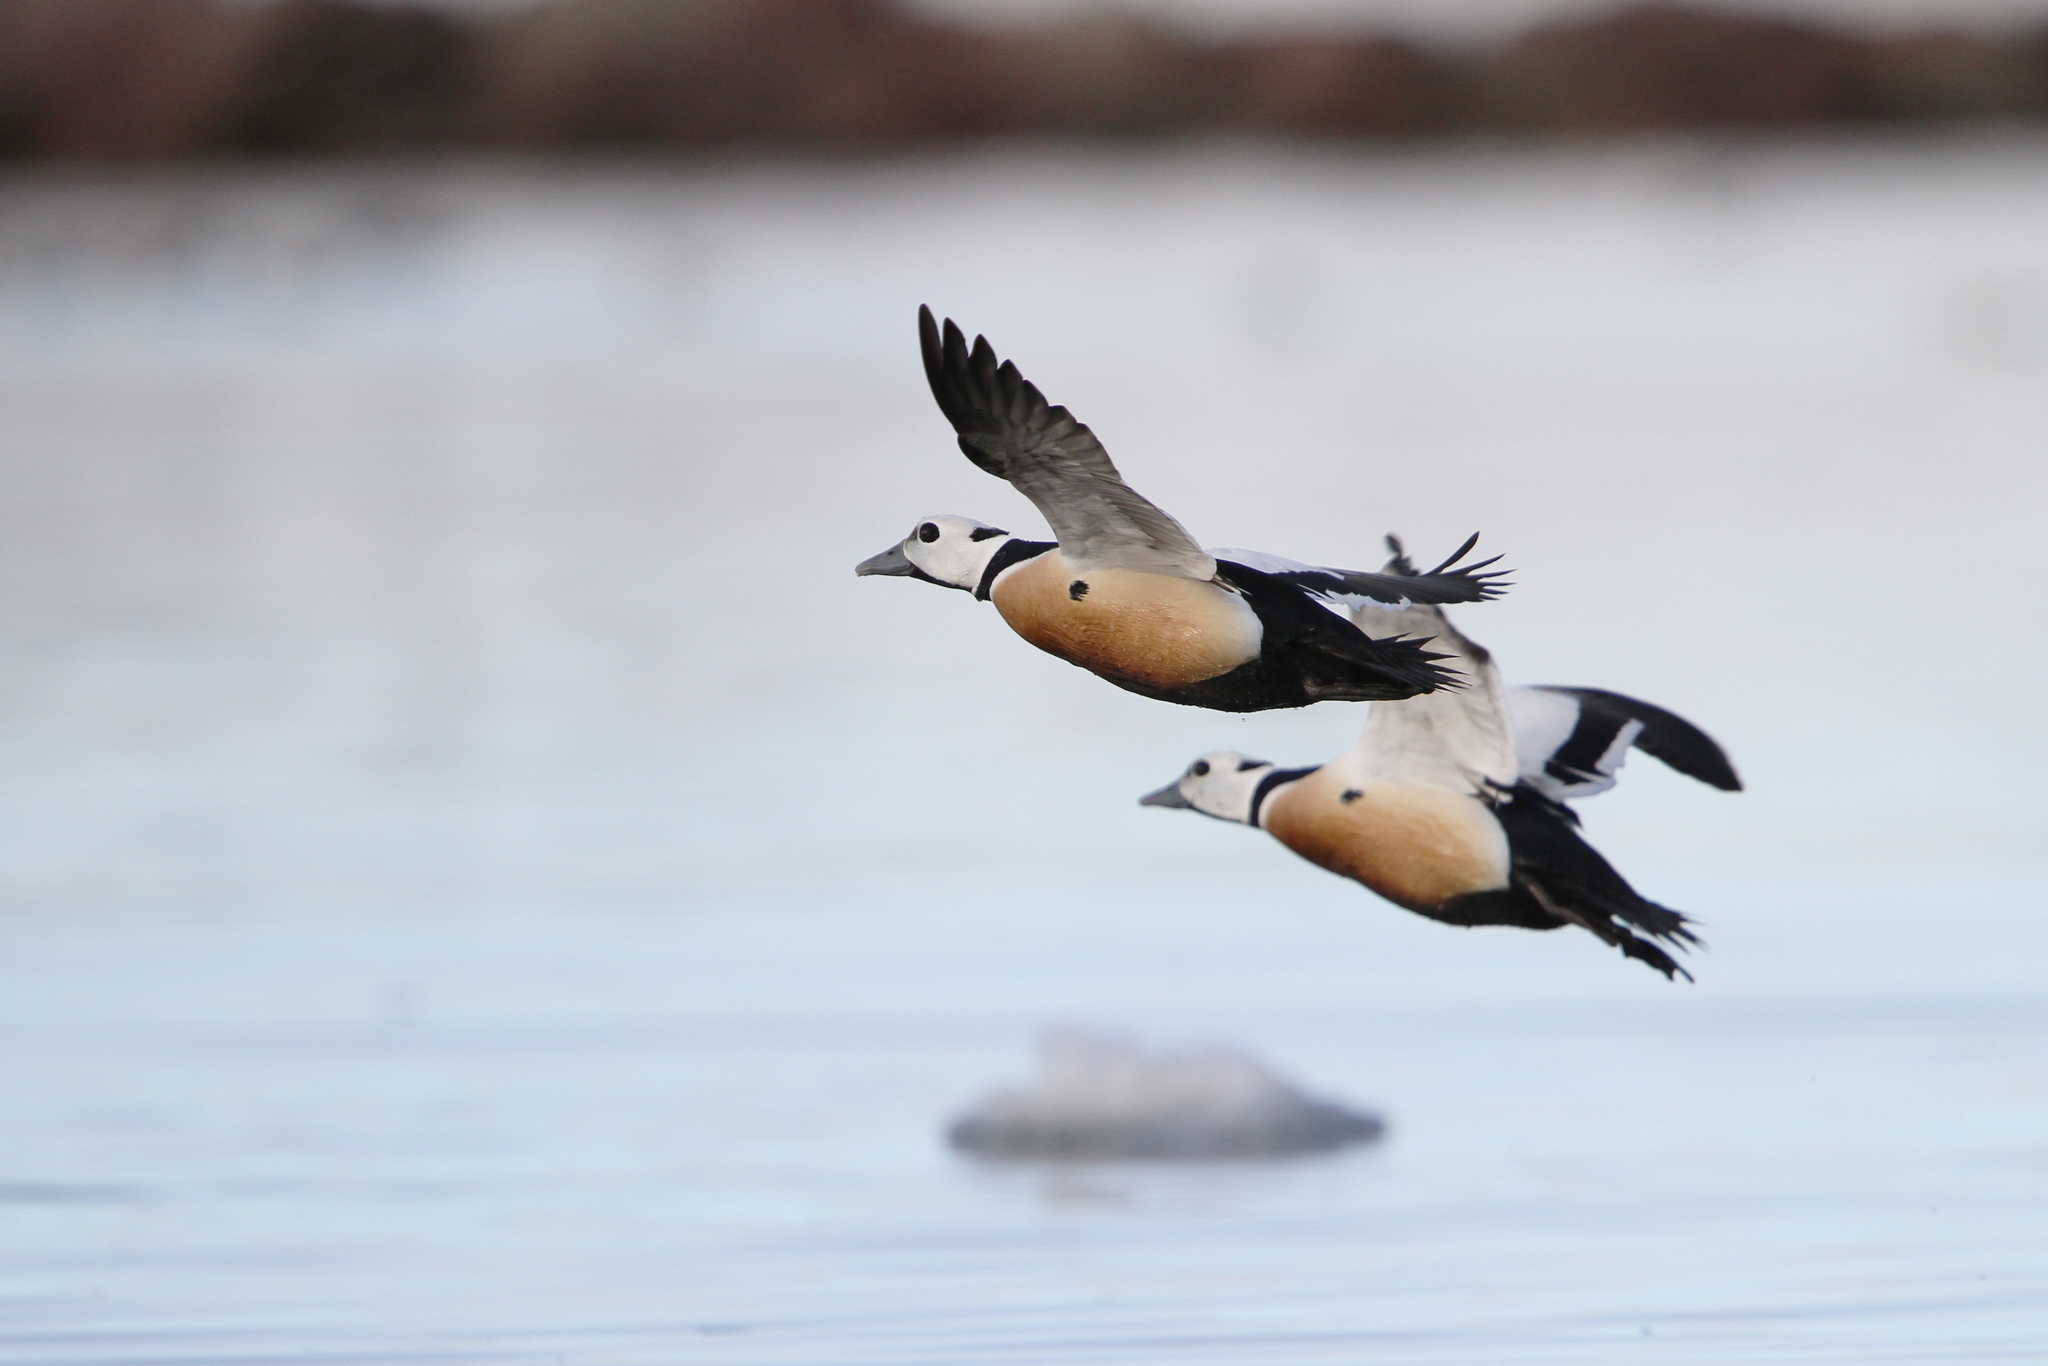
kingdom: Animalia
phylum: Chordata
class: Aves
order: Anseriformes
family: Anatidae
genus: Polysticta
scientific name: Polysticta stelleri
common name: Steller's eider
